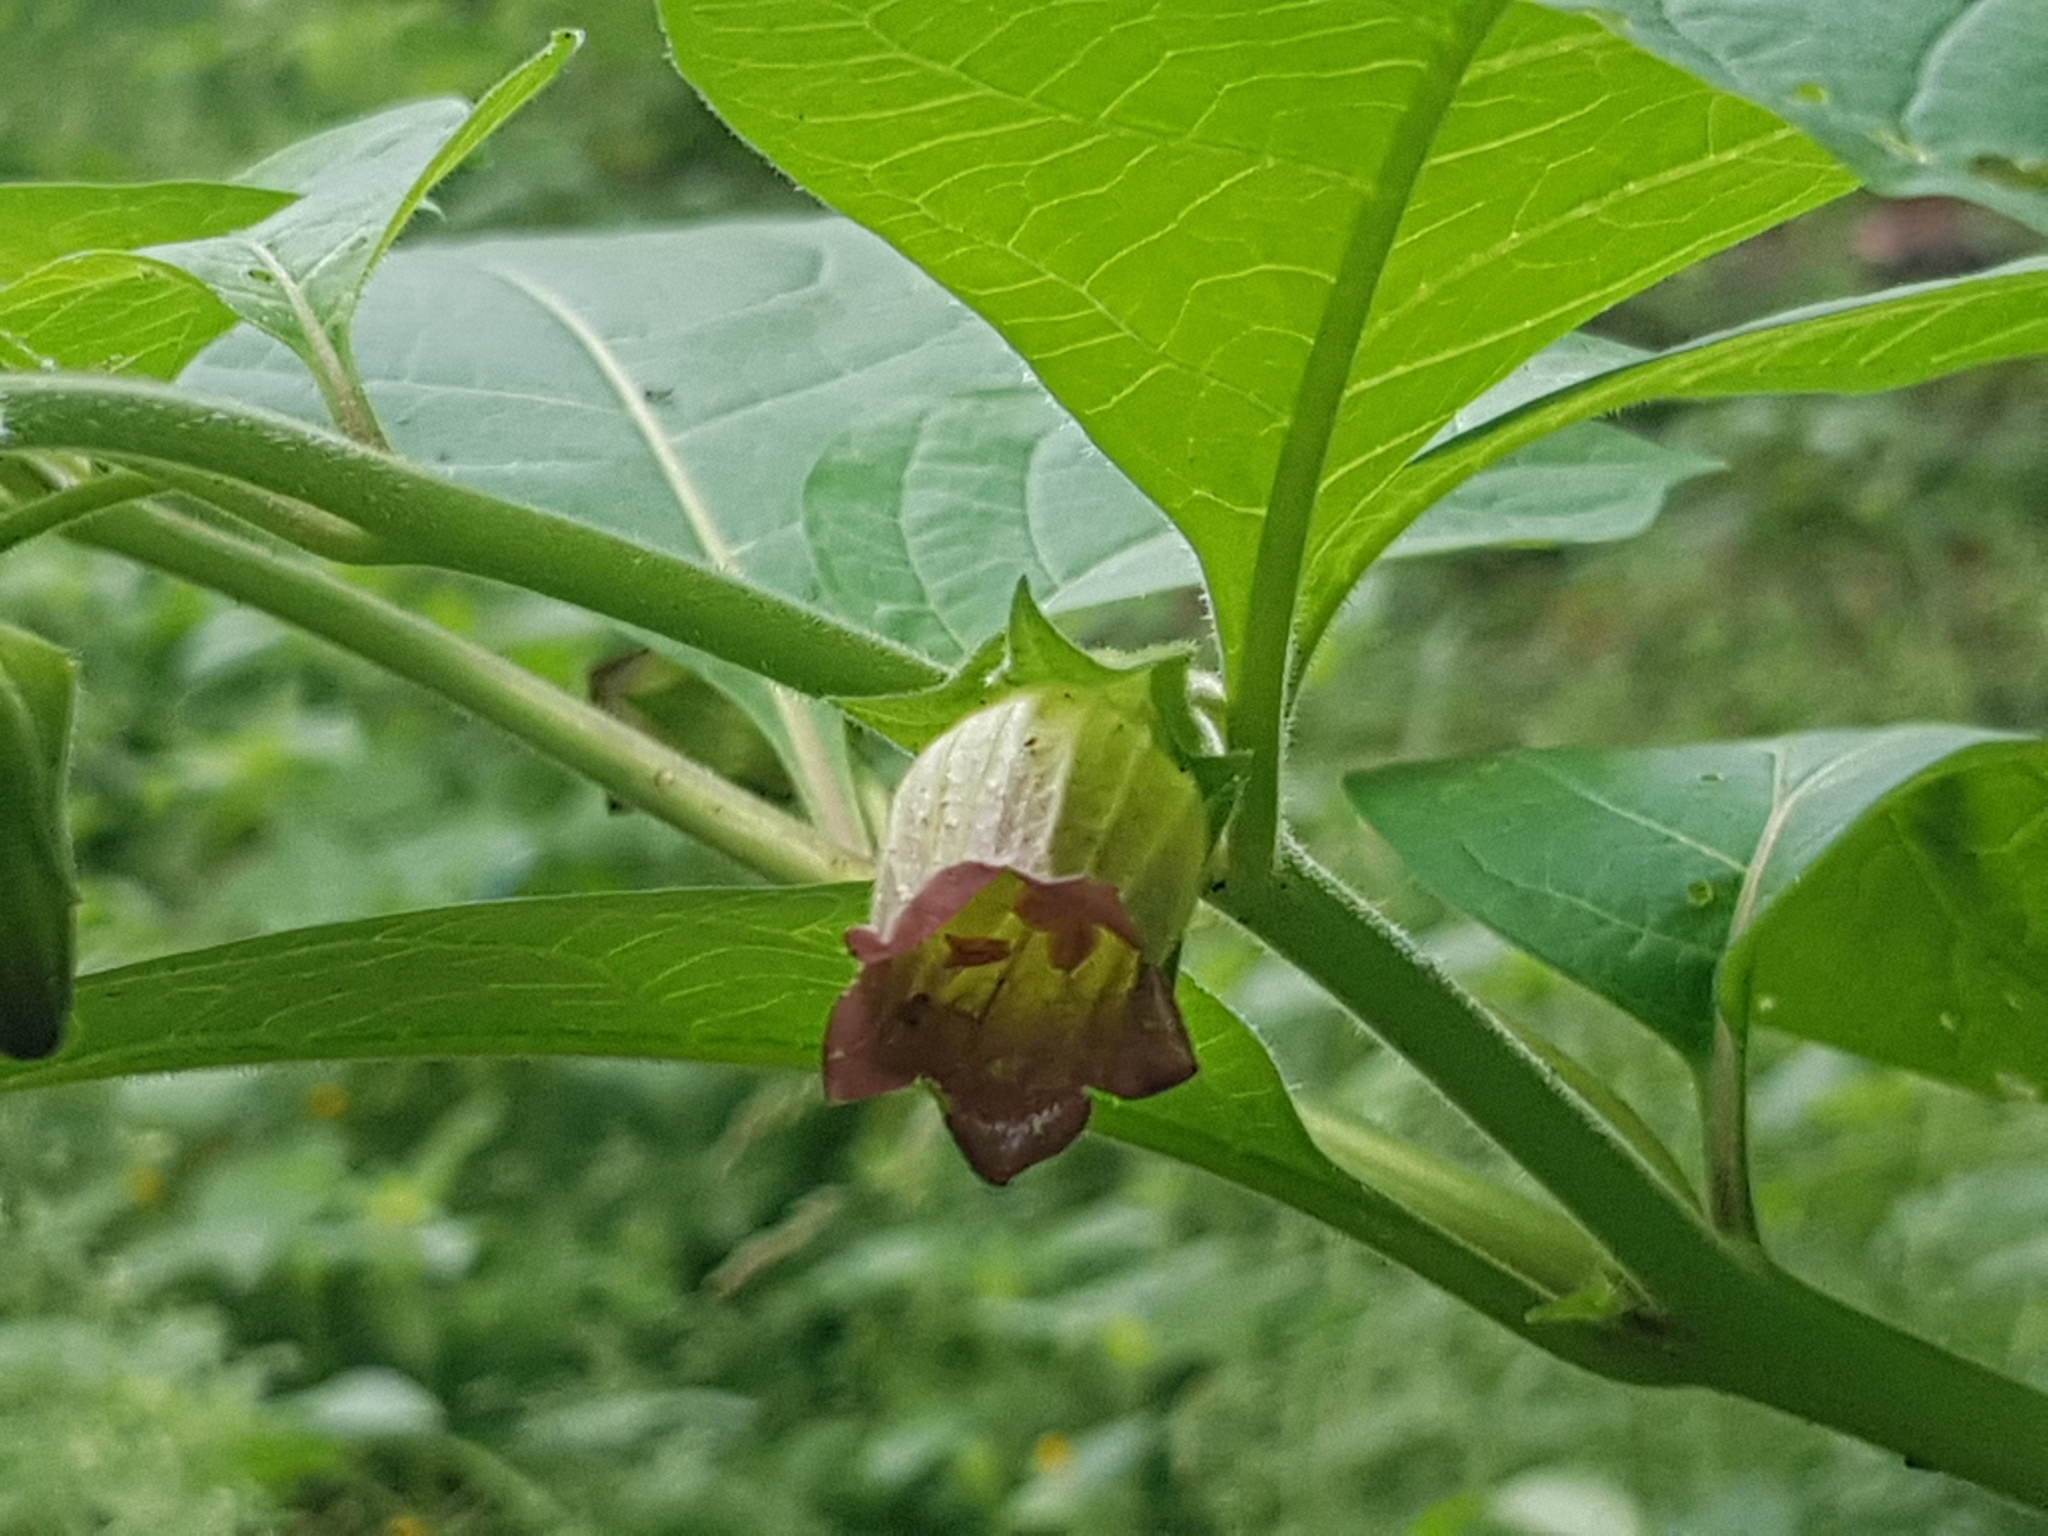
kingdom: Plantae
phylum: Tracheophyta
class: Magnoliopsida
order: Solanales
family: Solanaceae
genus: Atropa
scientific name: Atropa belladonna
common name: Deadly nightshade
